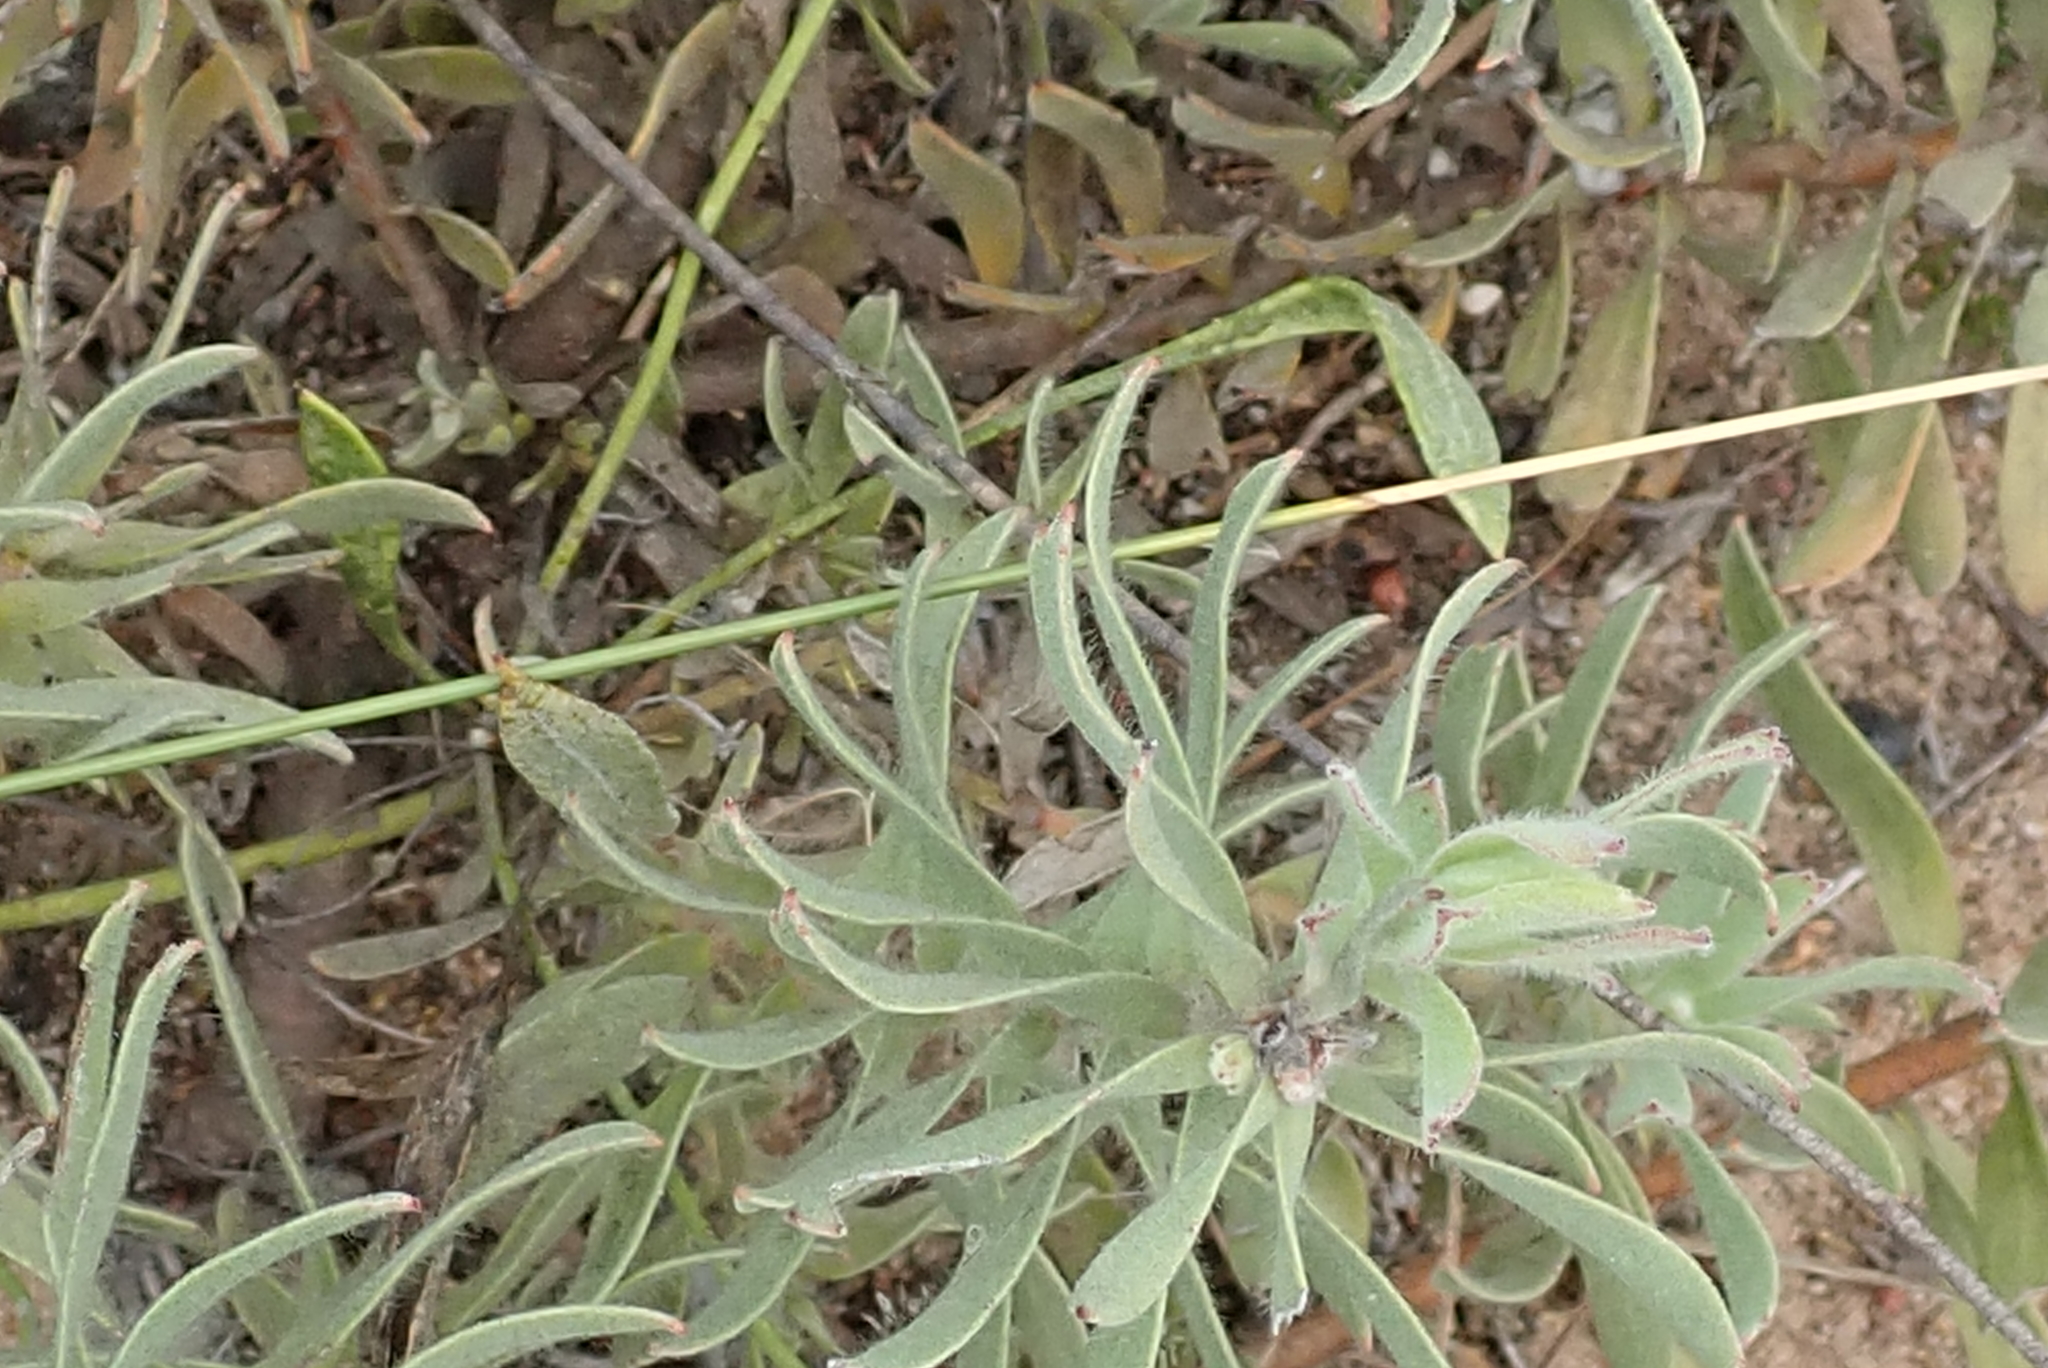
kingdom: Plantae
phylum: Tracheophyta
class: Magnoliopsida
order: Proteales
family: Proteaceae
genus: Leucospermum
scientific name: Leucospermum calligerum
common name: Arid pincushion
